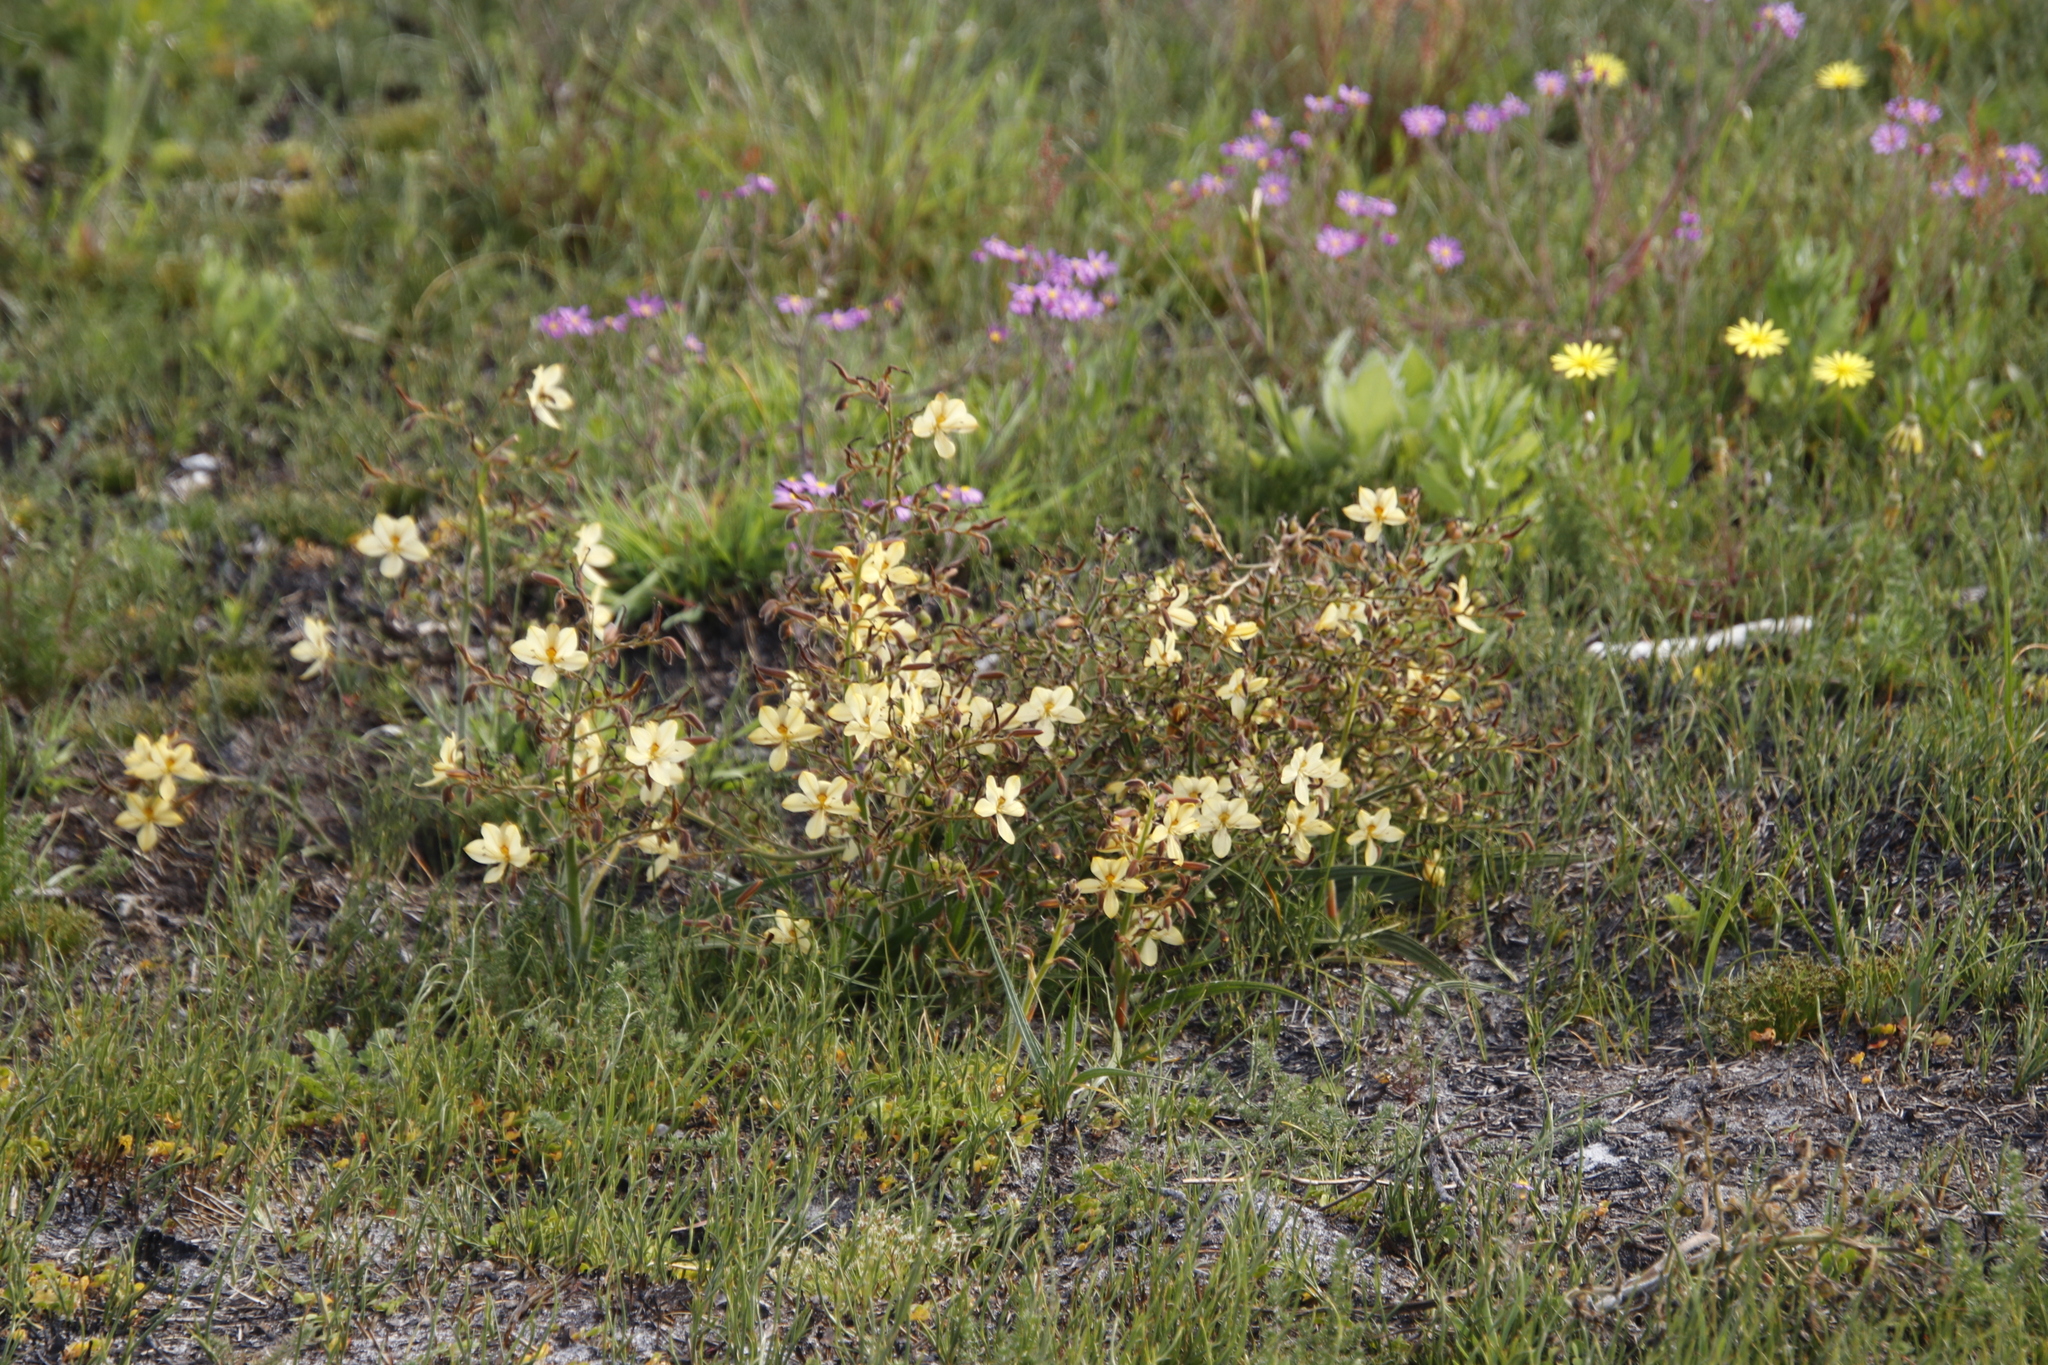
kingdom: Plantae
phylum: Tracheophyta
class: Liliopsida
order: Commelinales
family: Haemodoraceae
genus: Wachendorfia
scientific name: Wachendorfia paniculata
